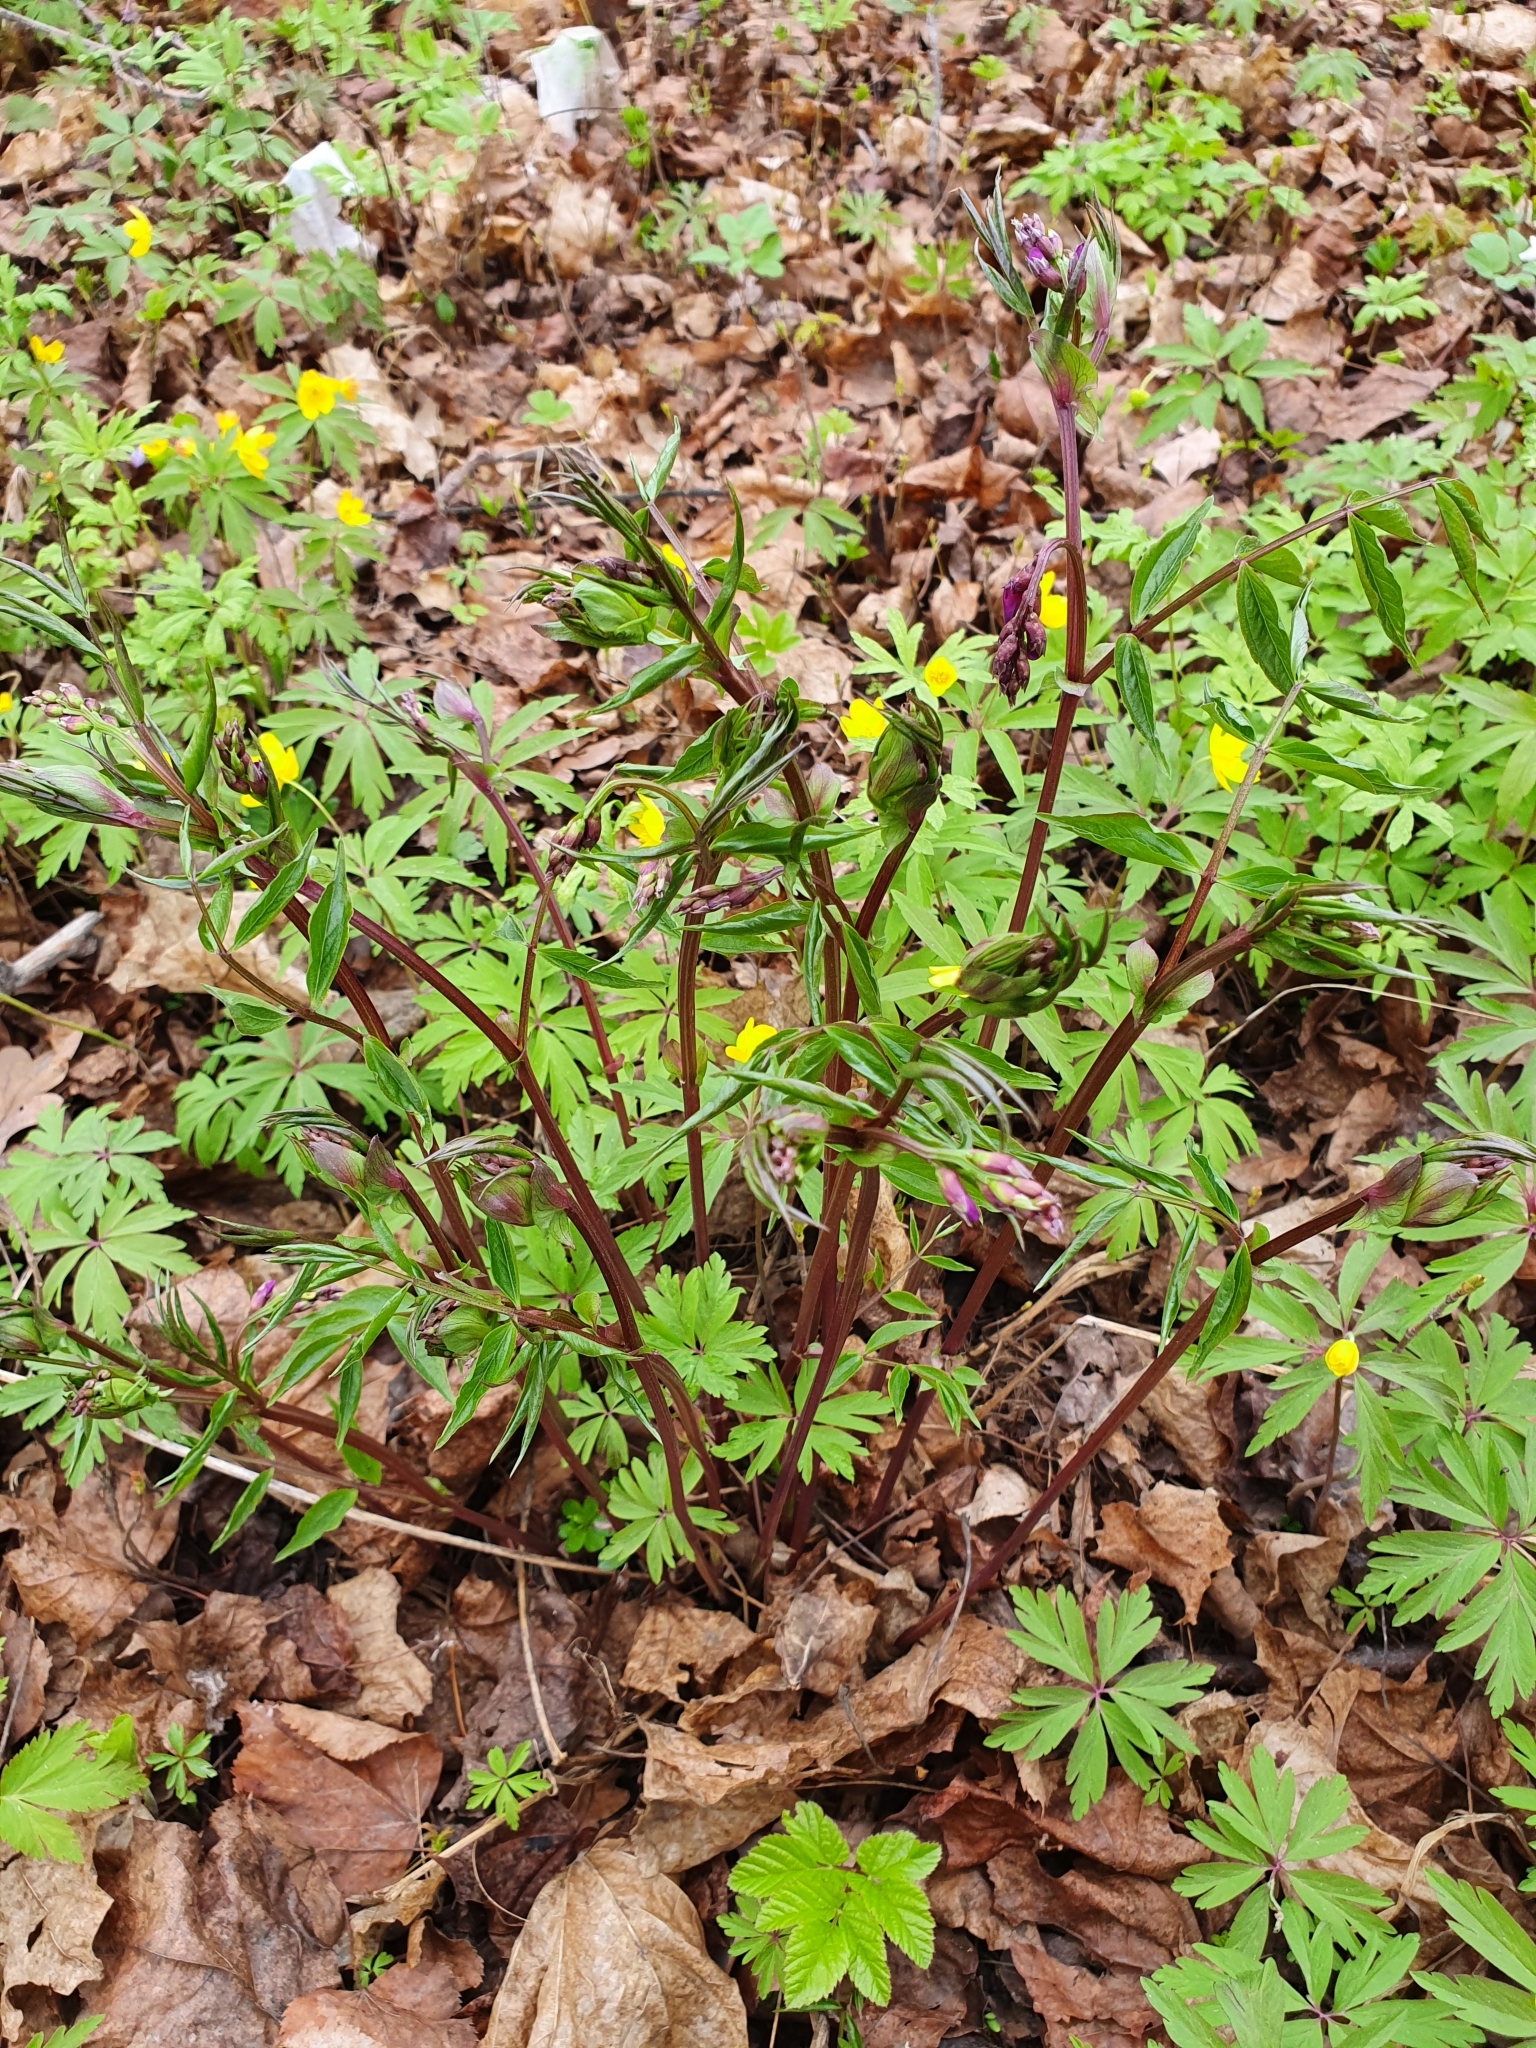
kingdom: Plantae
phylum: Tracheophyta
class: Magnoliopsida
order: Fabales
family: Fabaceae
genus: Lathyrus
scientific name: Lathyrus vernus
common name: Spring pea
